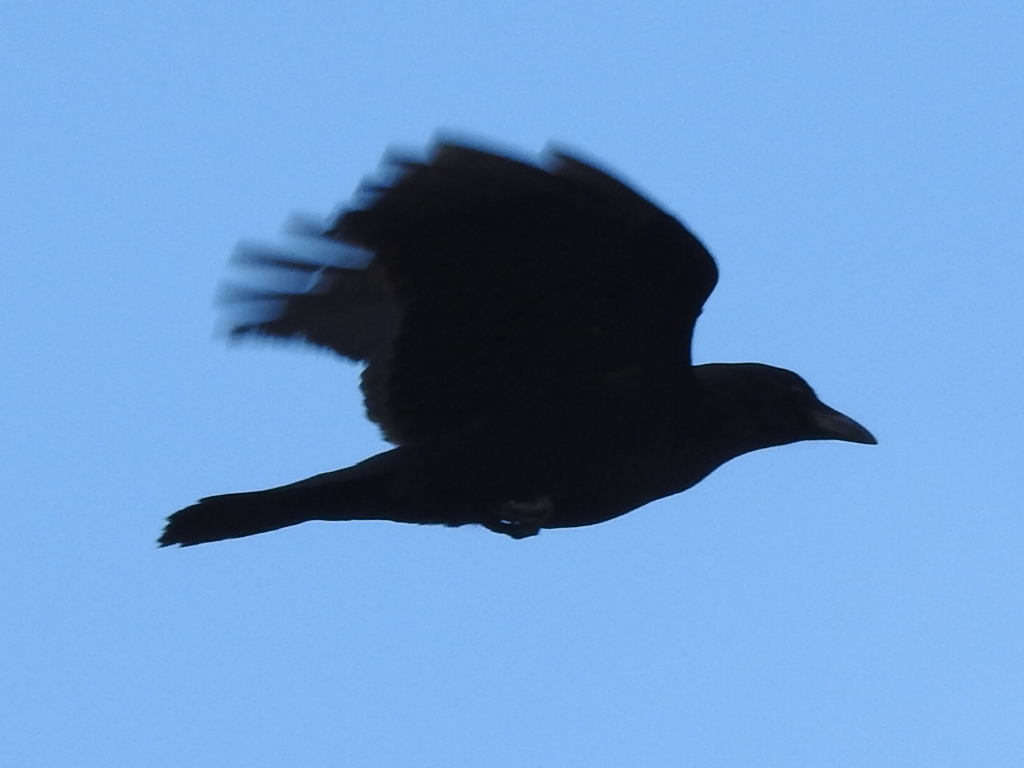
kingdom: Animalia
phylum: Chordata
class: Aves
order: Passeriformes
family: Corvidae
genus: Corvus
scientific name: Corvus brachyrhynchos
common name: American crow
